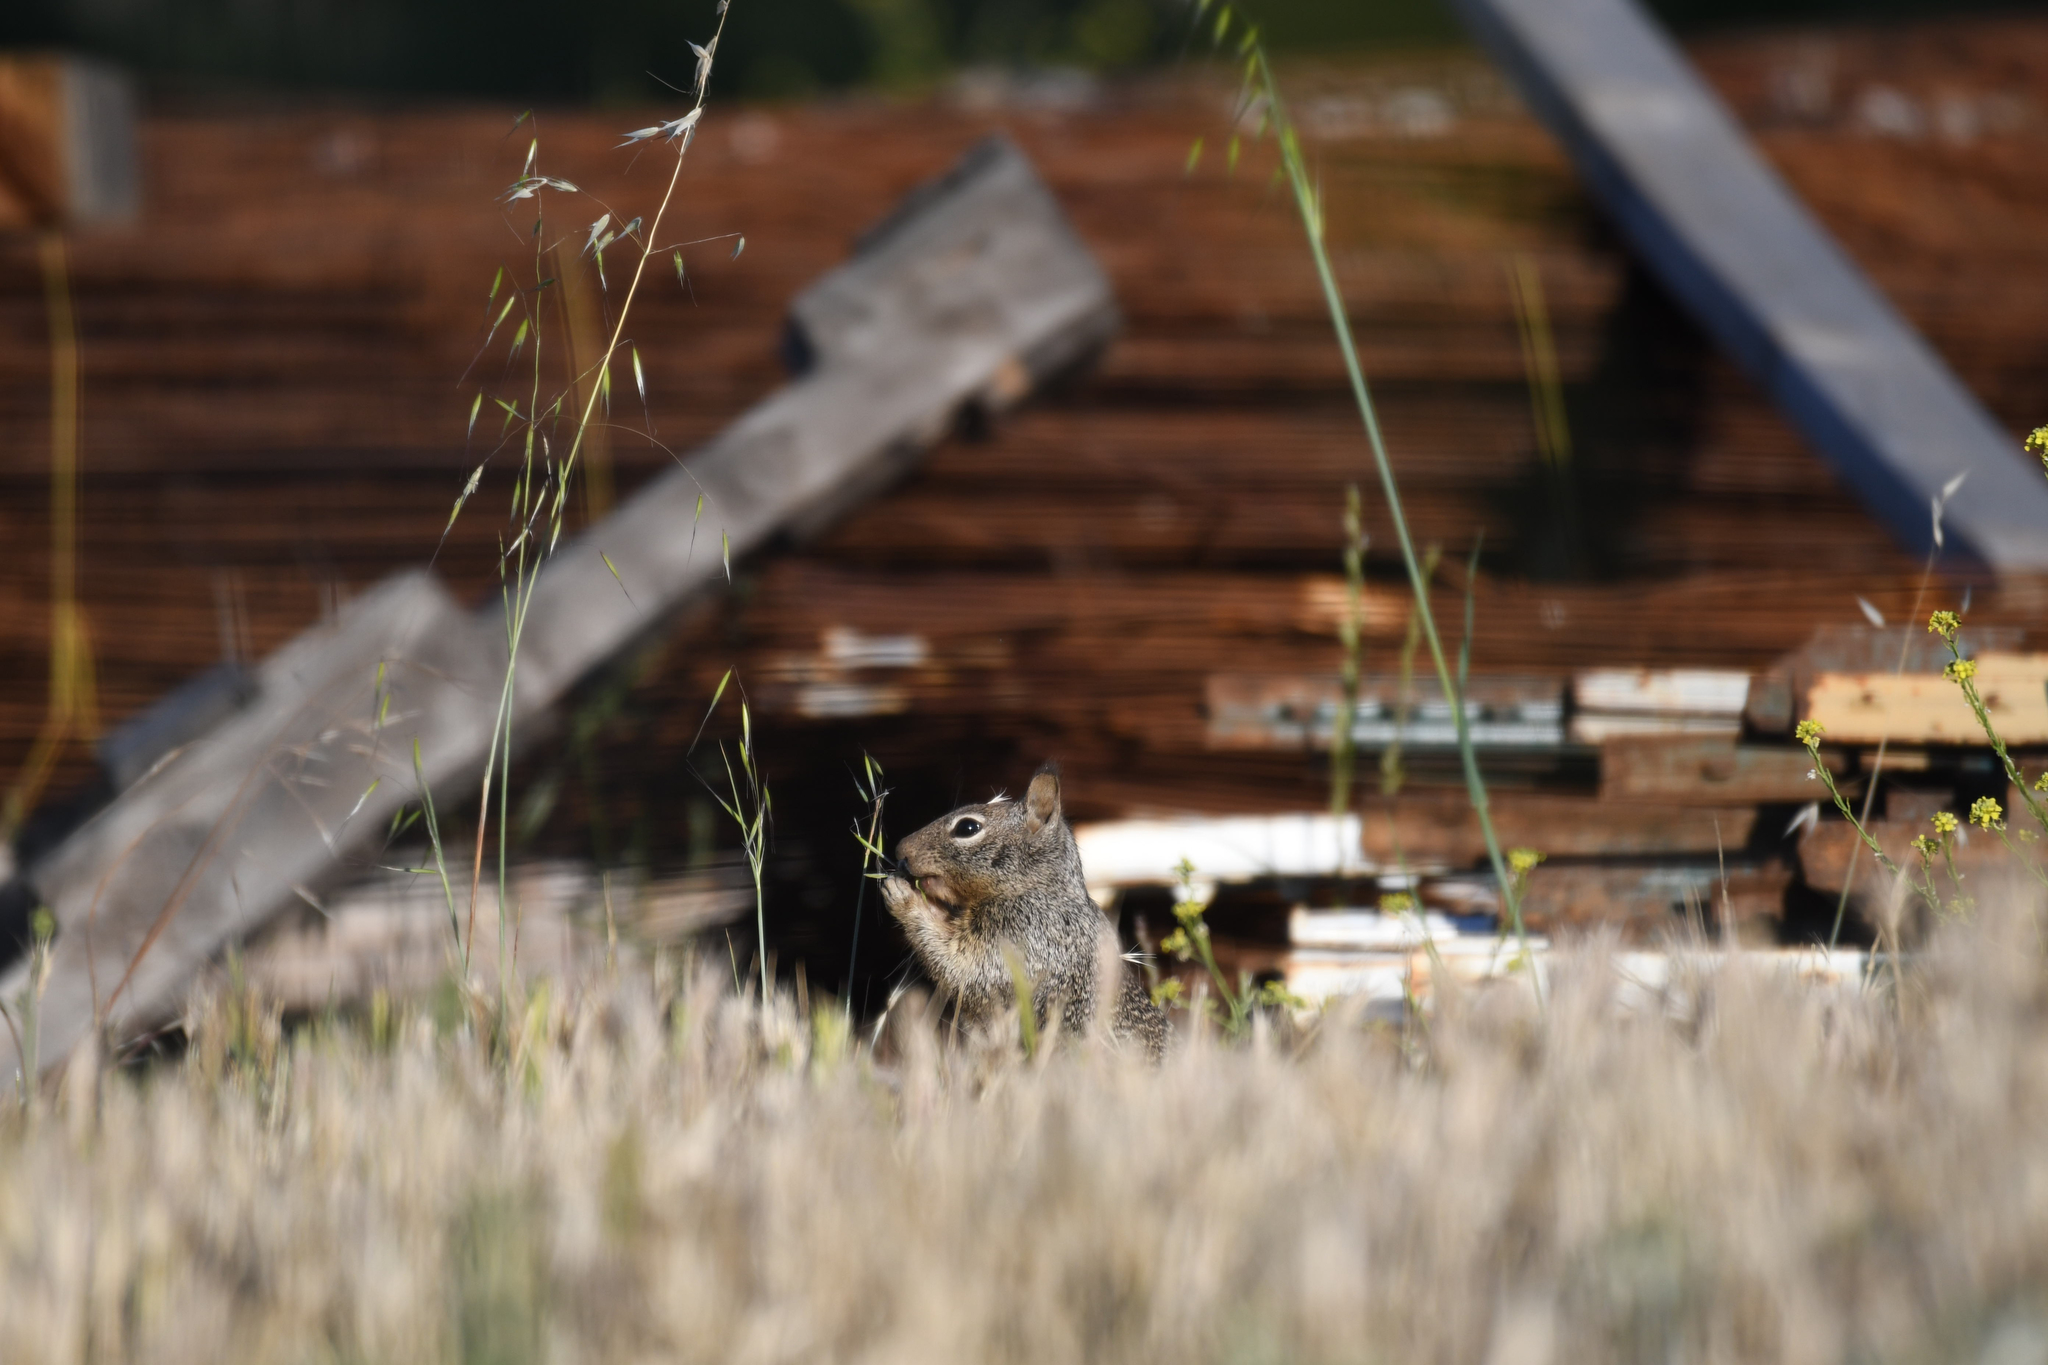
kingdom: Animalia
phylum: Chordata
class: Mammalia
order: Rodentia
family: Sciuridae
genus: Otospermophilus
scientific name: Otospermophilus beecheyi
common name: California ground squirrel
